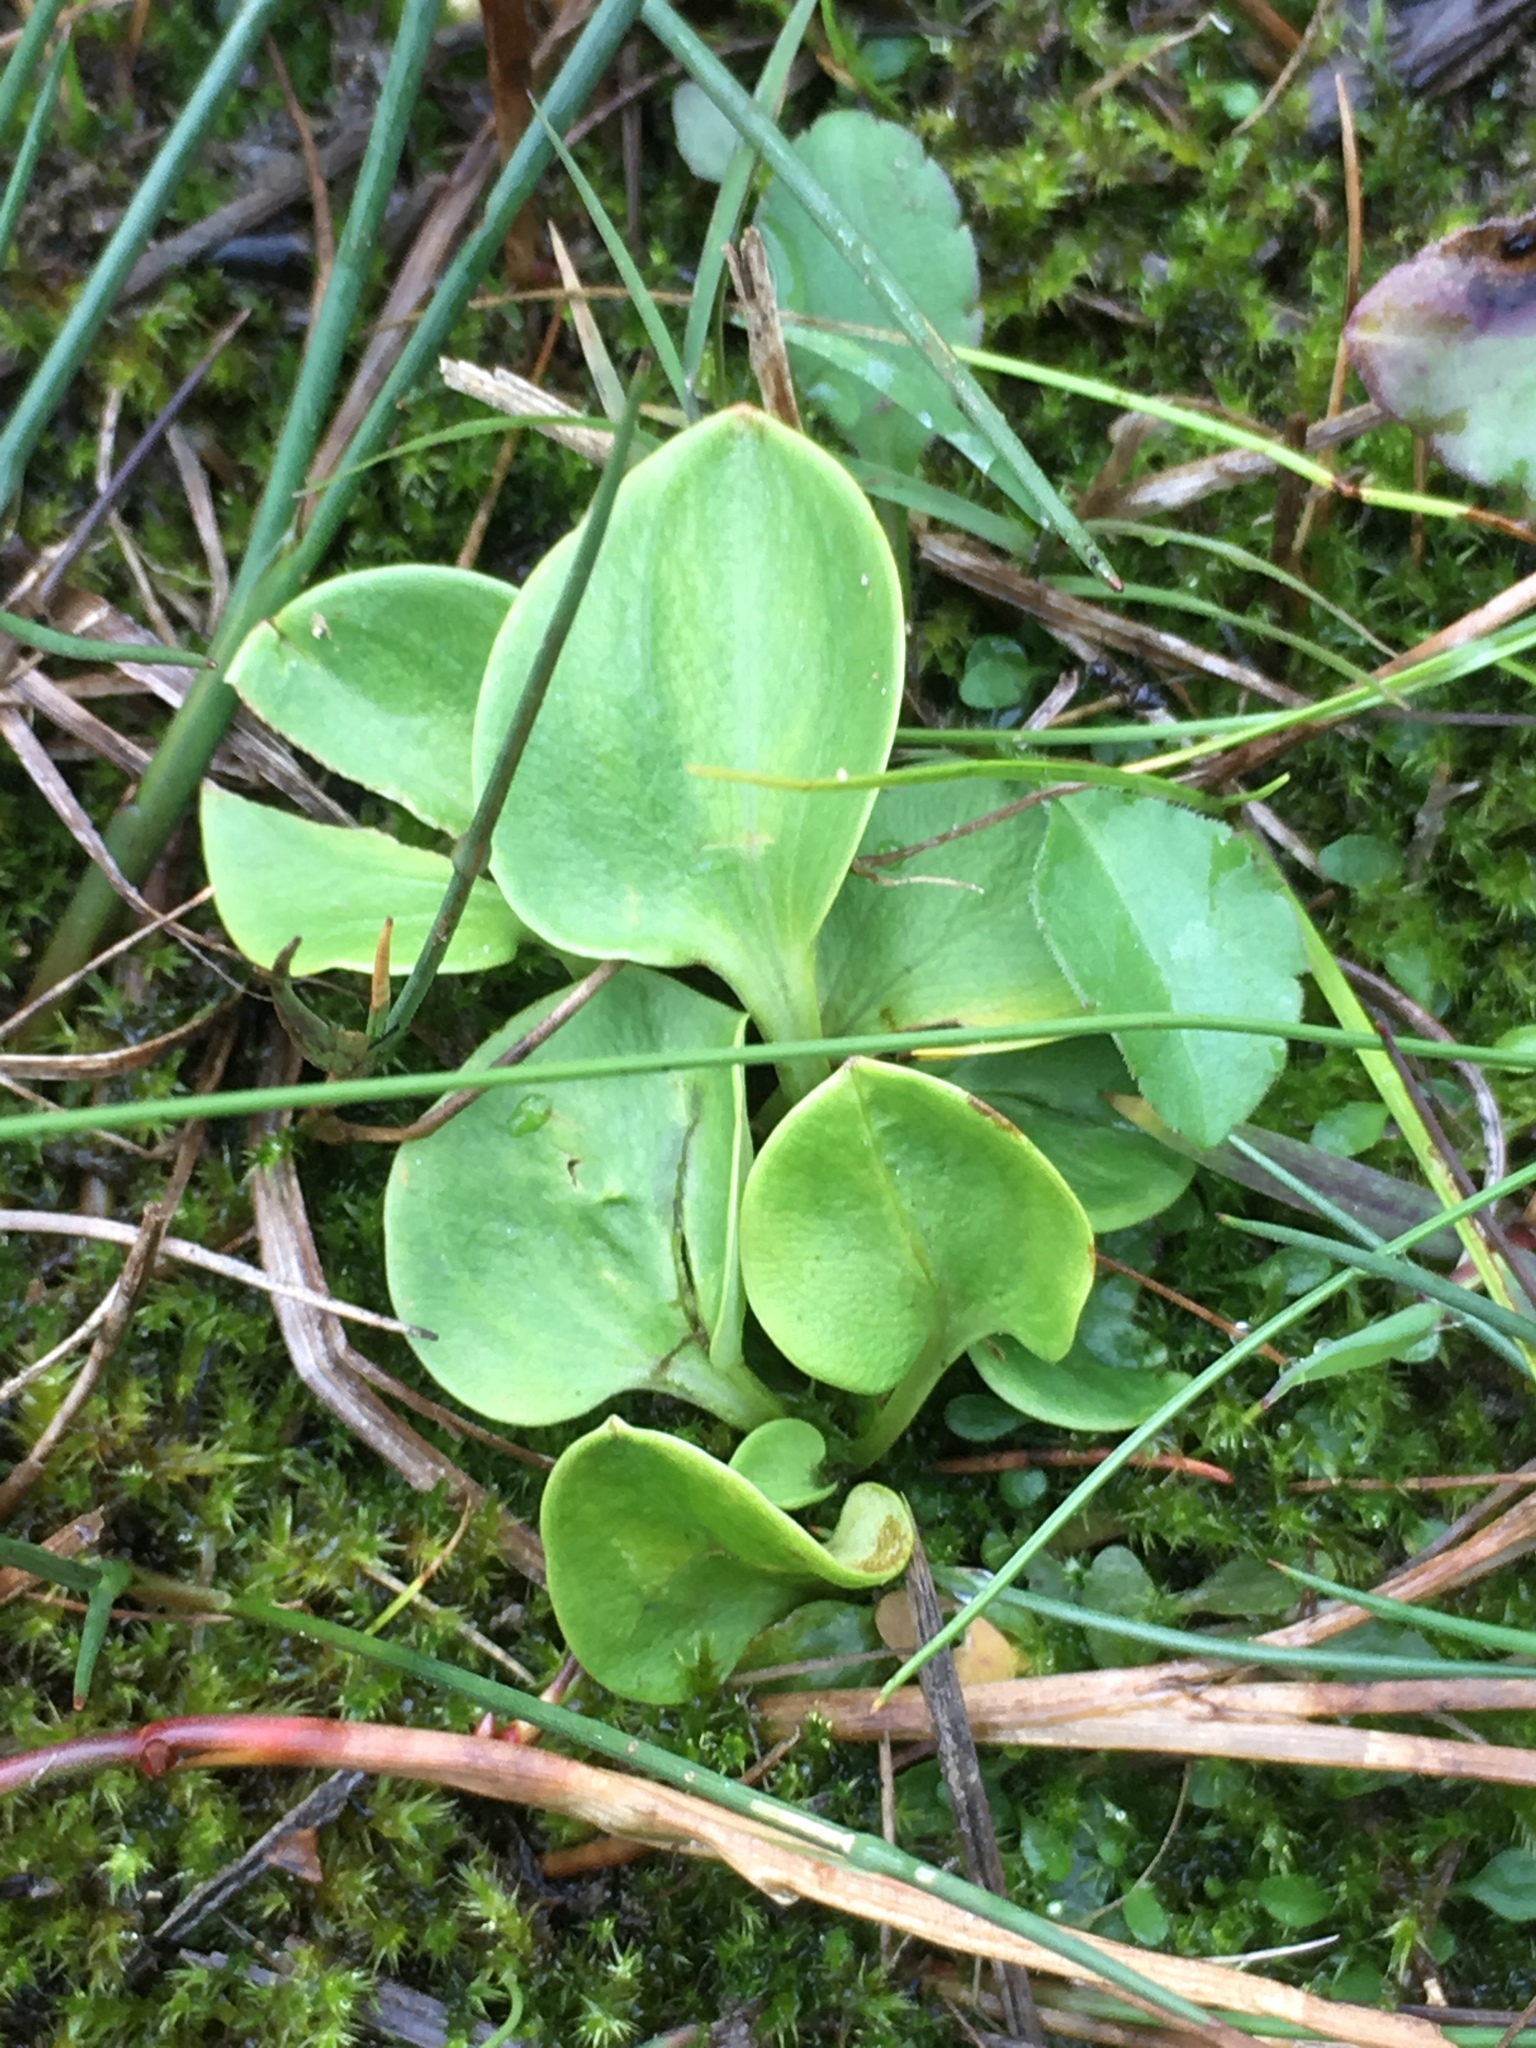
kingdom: Plantae
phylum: Tracheophyta
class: Magnoliopsida
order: Celastrales
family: Parnassiaceae
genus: Parnassia
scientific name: Parnassia glauca
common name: American grass-of-parnassus
